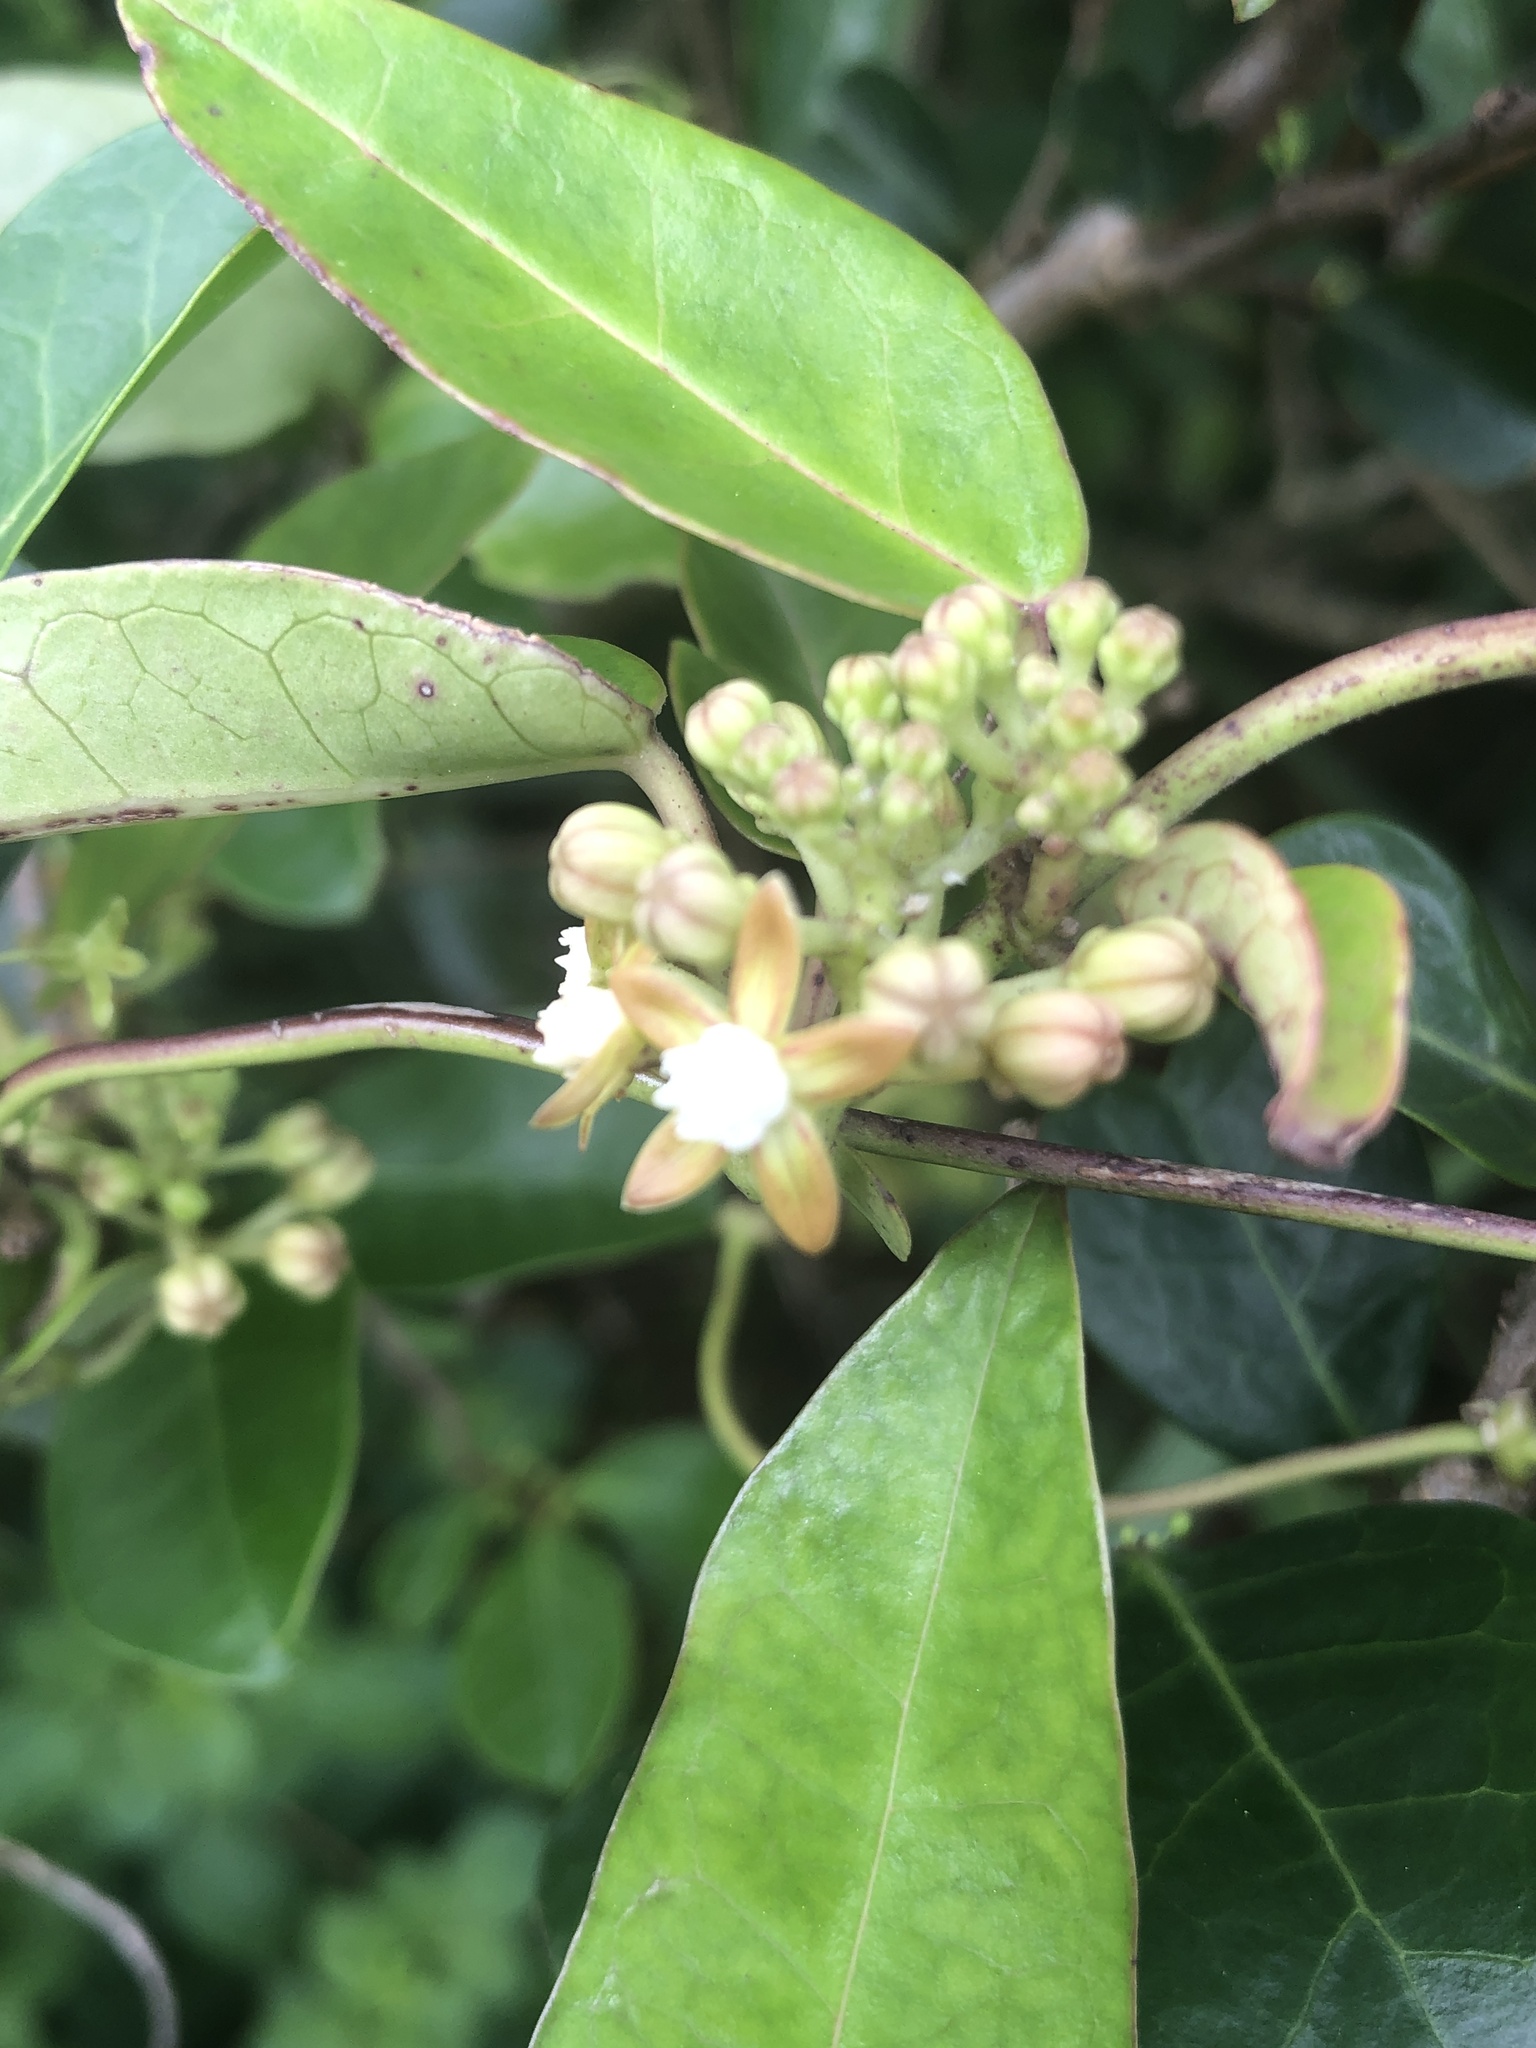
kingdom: Plantae
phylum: Tracheophyta
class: Magnoliopsida
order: Gentianales
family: Apocynaceae
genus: Cynanchum
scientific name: Cynanchum ovalifolium
